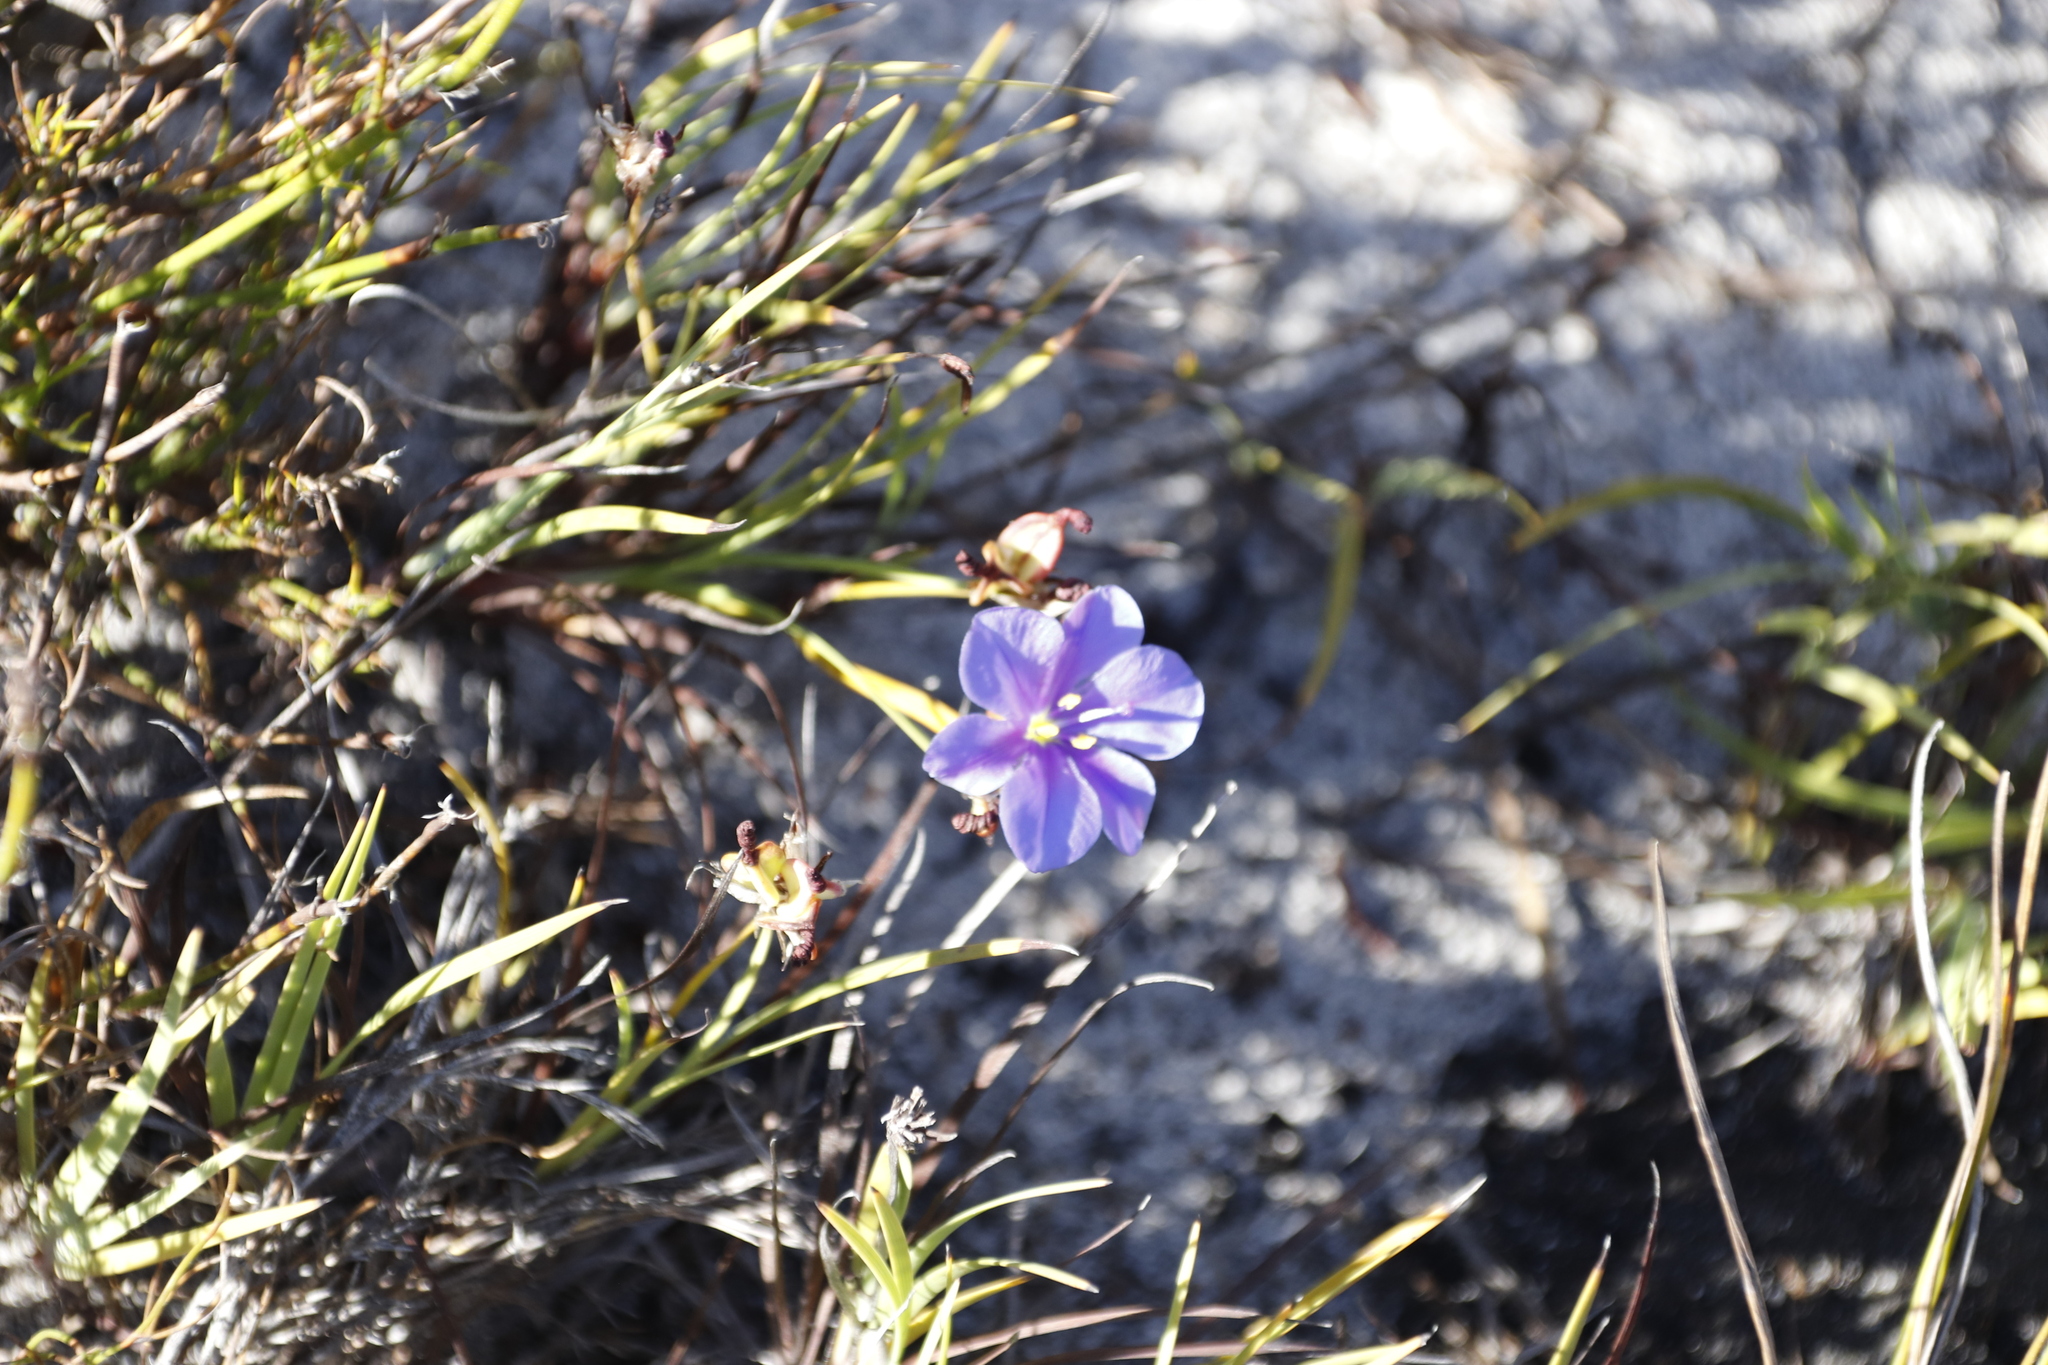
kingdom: Plantae
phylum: Tracheophyta
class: Liliopsida
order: Asparagales
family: Iridaceae
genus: Aristea
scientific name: Aristea africana
